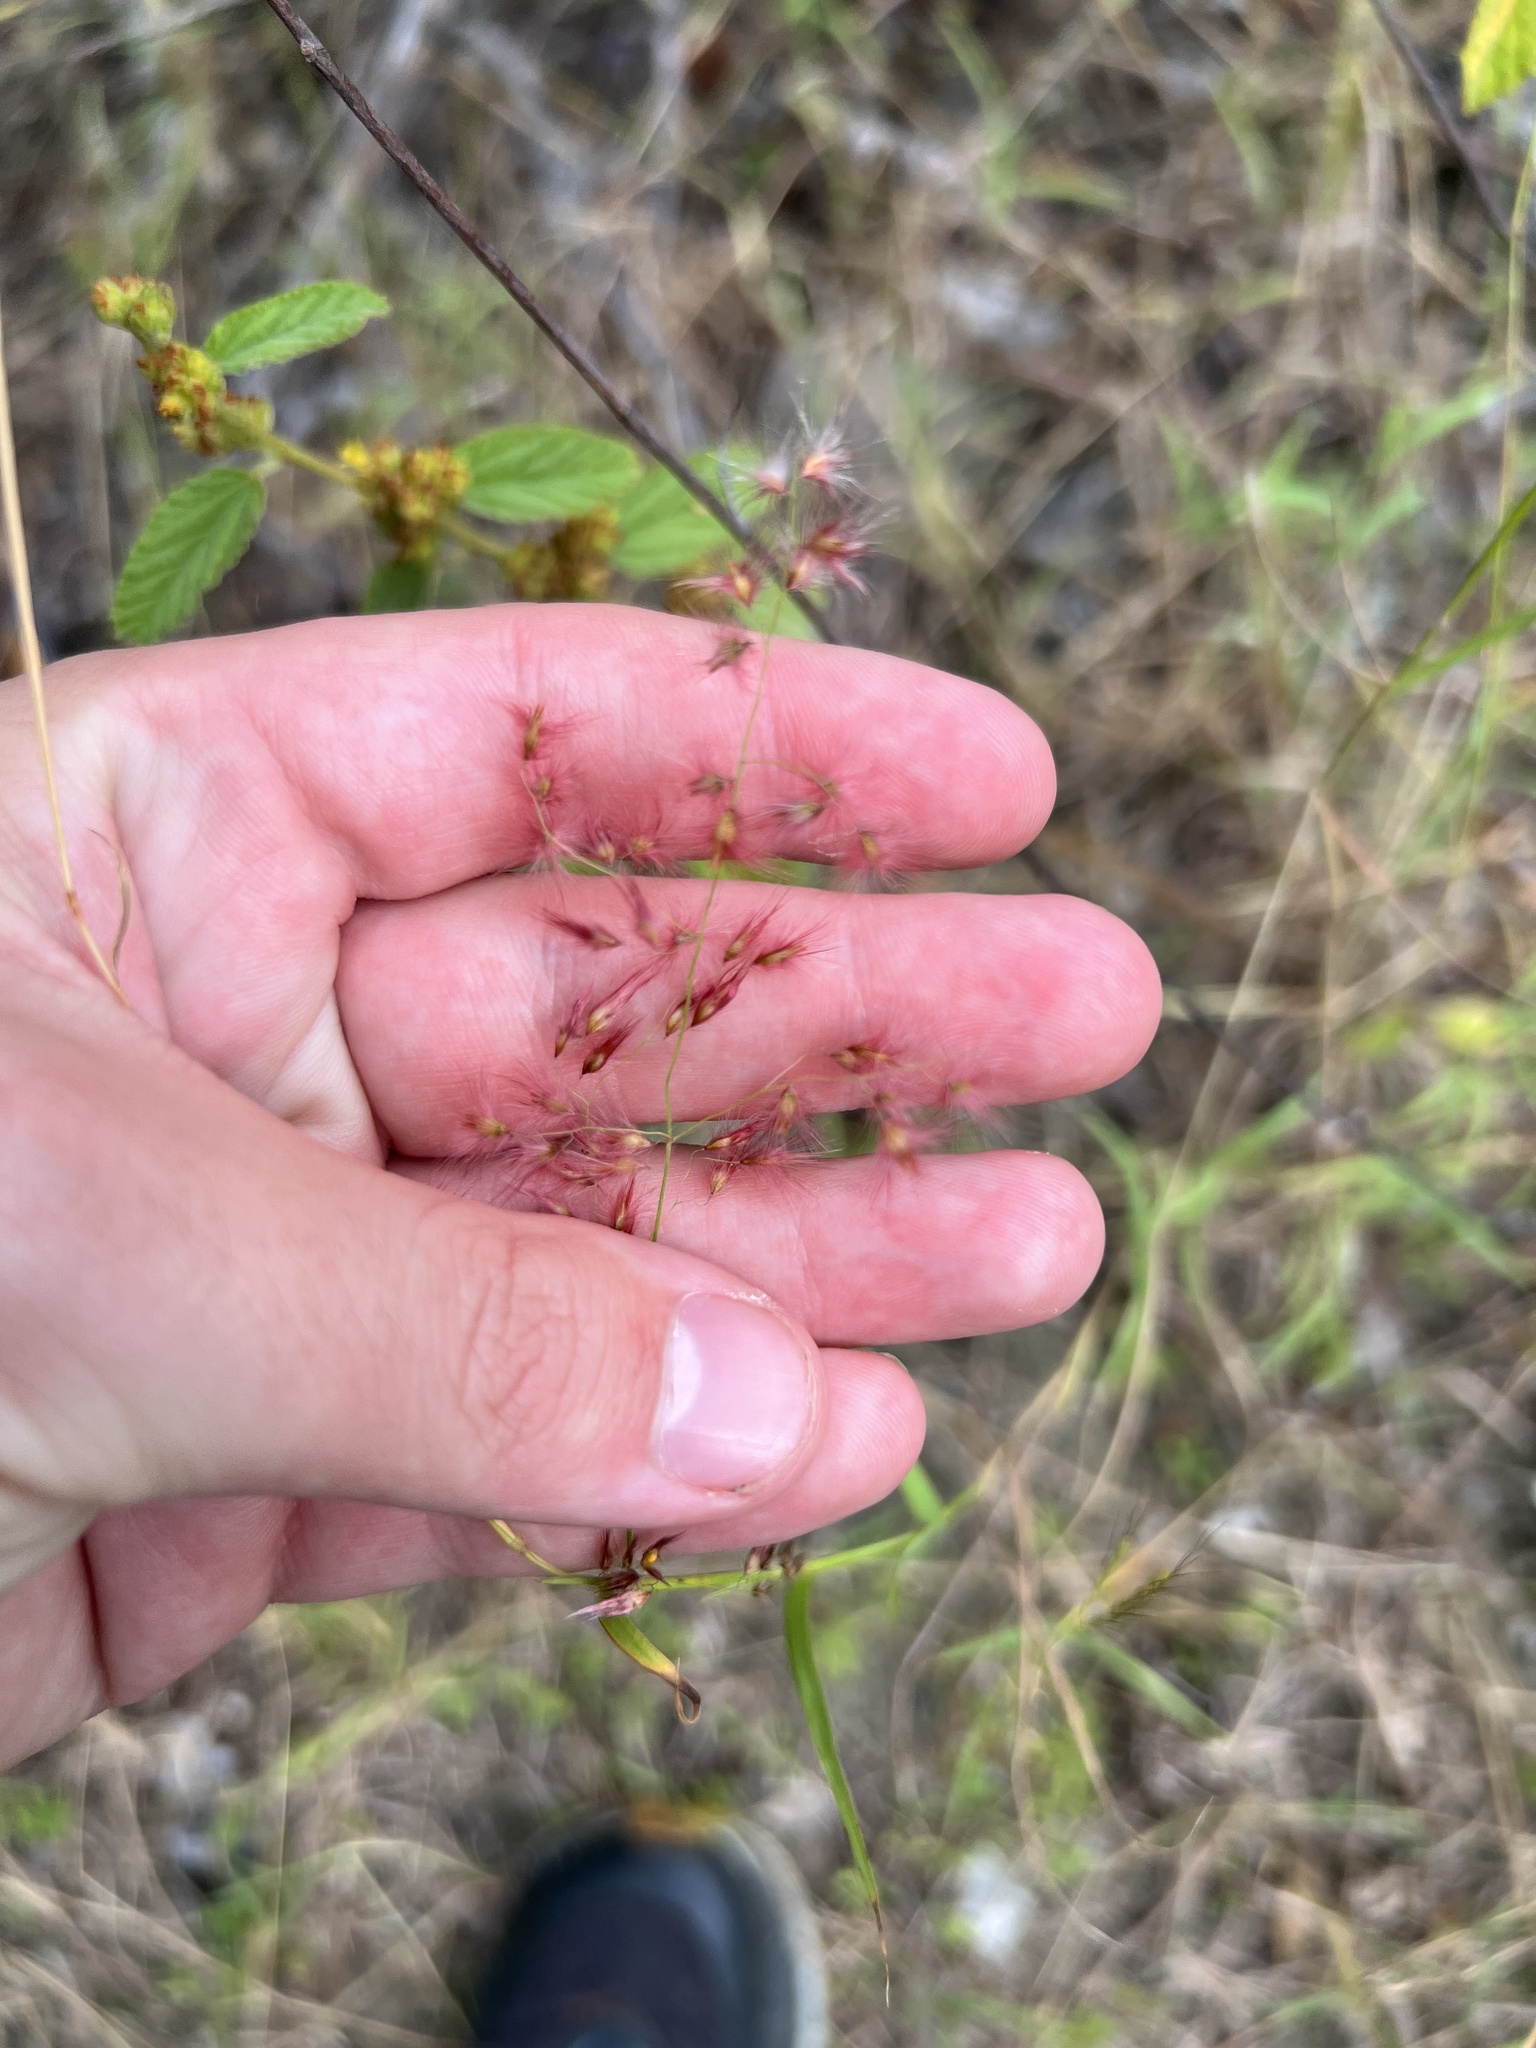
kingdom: Plantae
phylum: Tracheophyta
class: Liliopsida
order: Poales
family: Poaceae
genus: Melinis
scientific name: Melinis repens
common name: Rose natal grass
